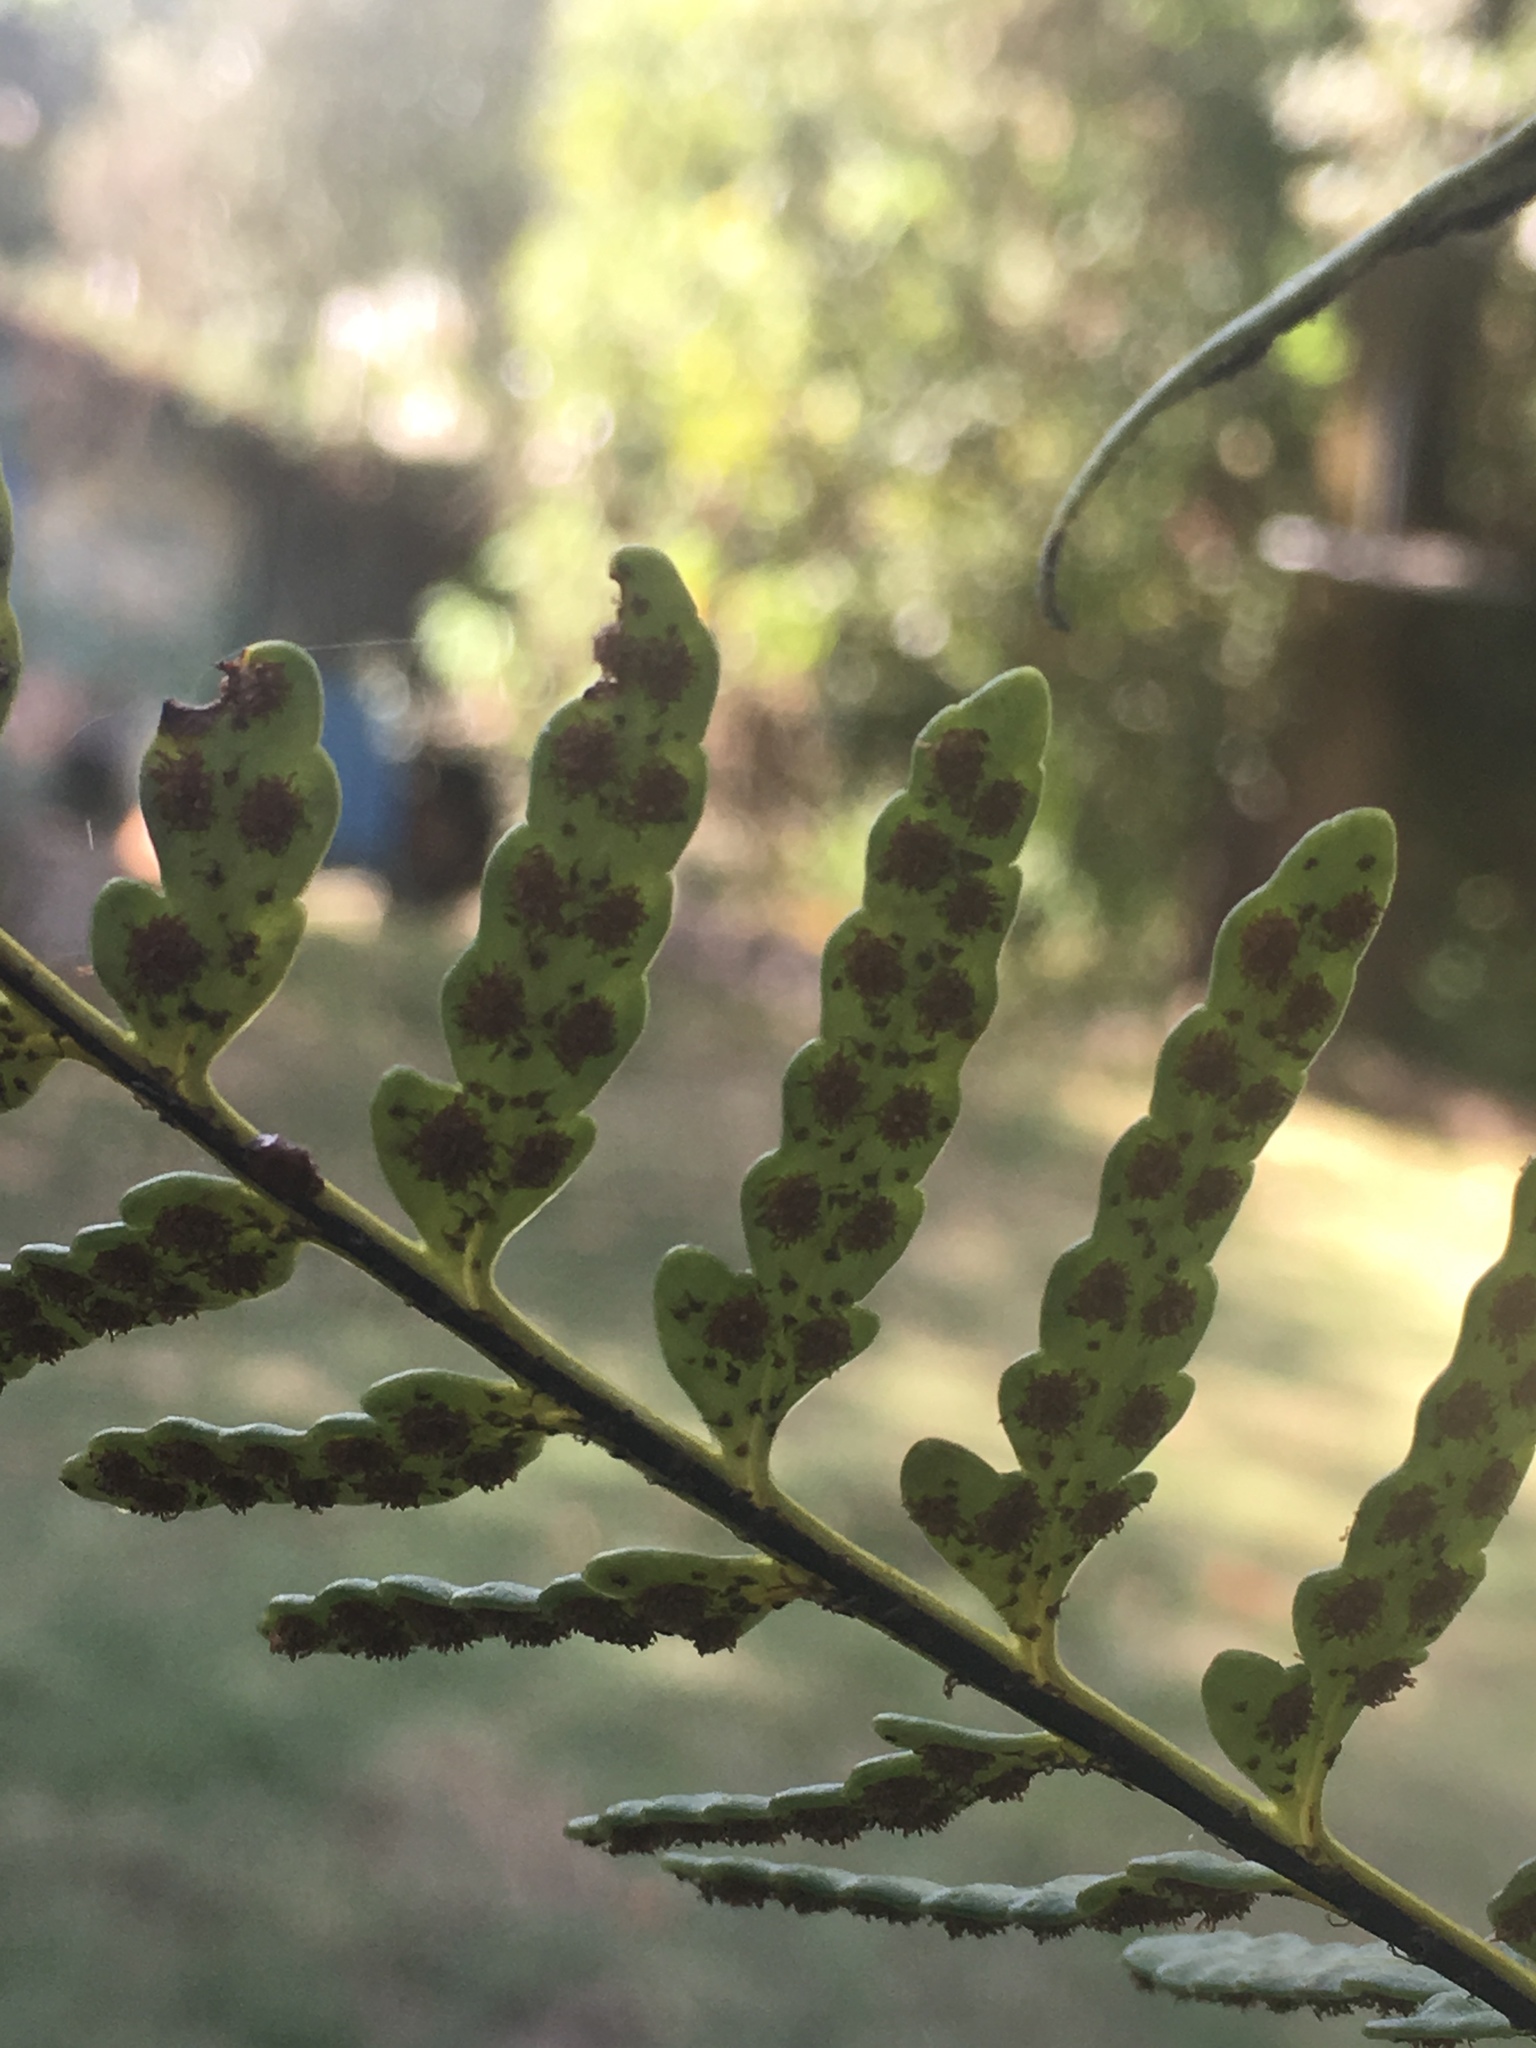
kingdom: Plantae
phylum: Tracheophyta
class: Polypodiopsida
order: Polypodiales
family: Polypodiaceae
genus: Pleopeltis
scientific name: Pleopeltis murora
